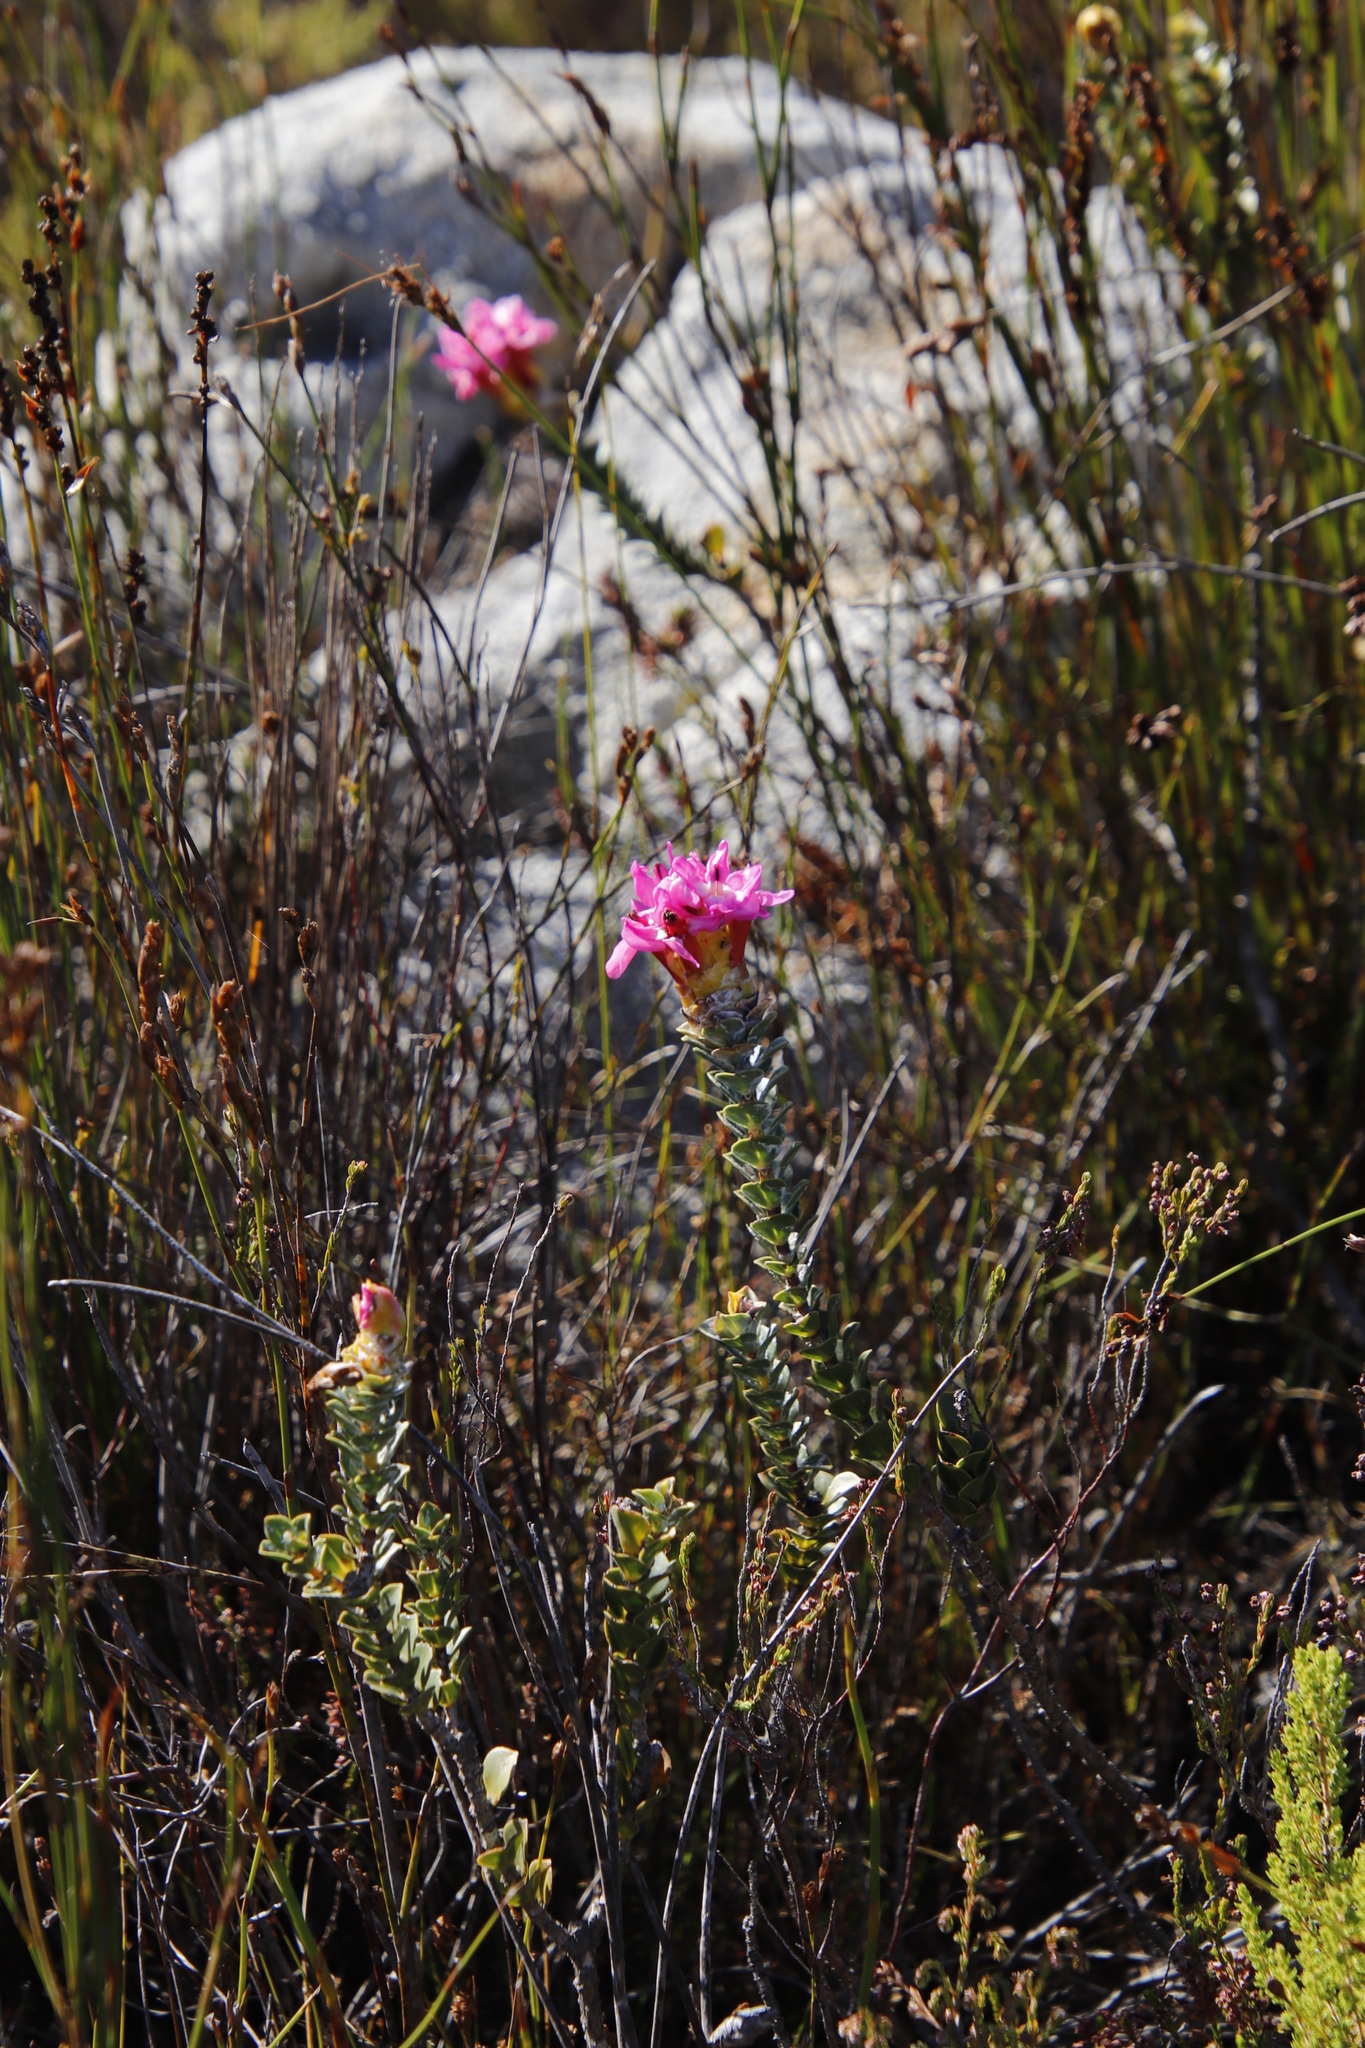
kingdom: Plantae
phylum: Tracheophyta
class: Magnoliopsida
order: Myrtales
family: Penaeaceae
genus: Saltera
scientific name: Saltera sarcocolla
